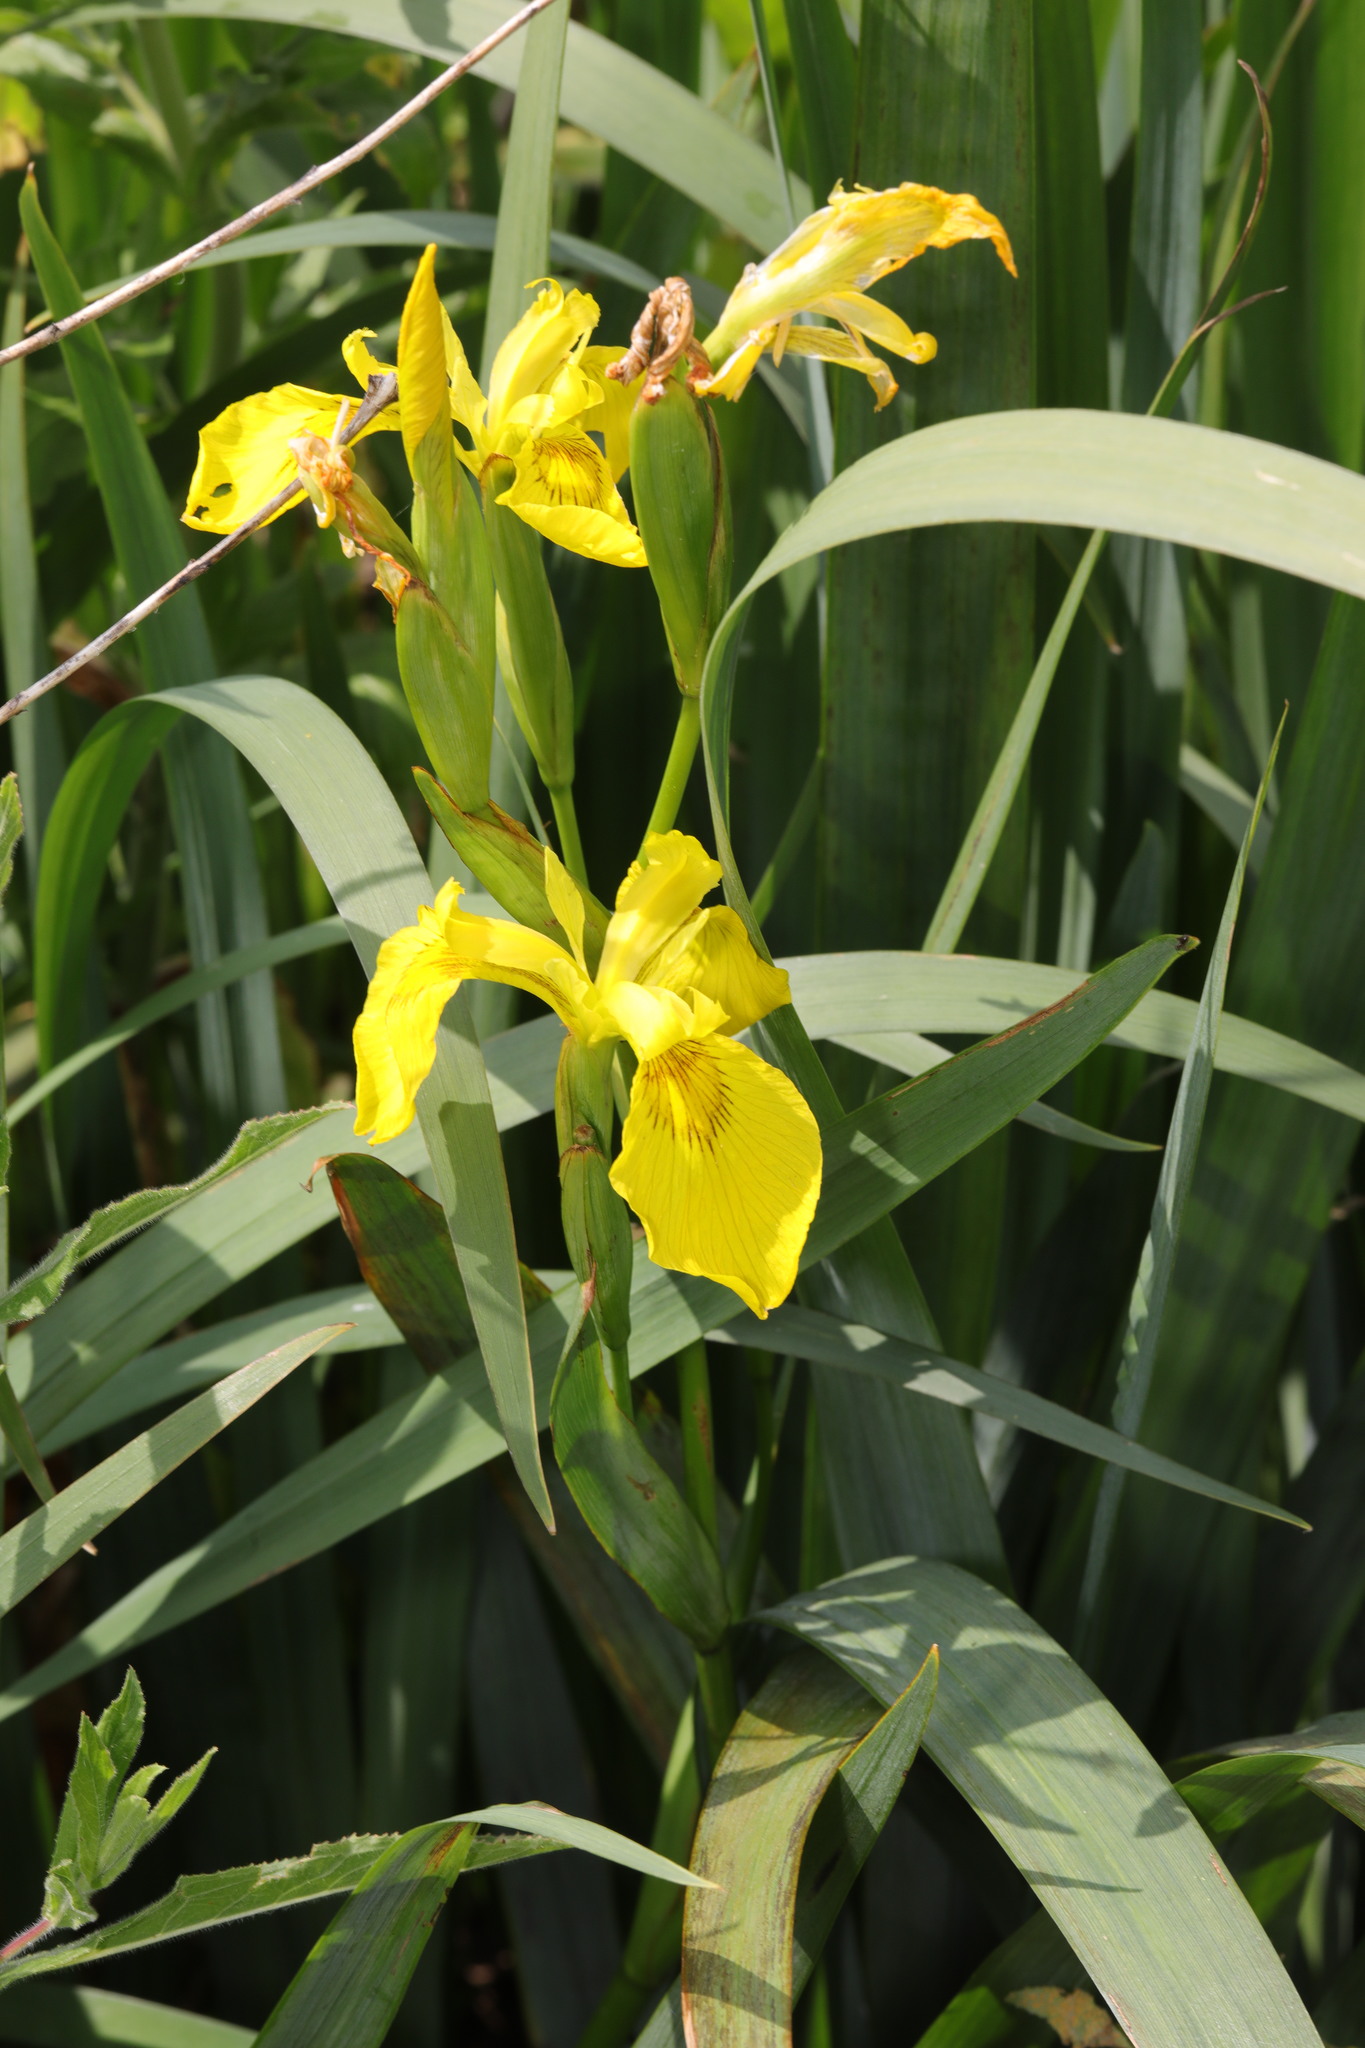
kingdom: Plantae
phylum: Tracheophyta
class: Liliopsida
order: Asparagales
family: Iridaceae
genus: Iris
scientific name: Iris pseudacorus
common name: Yellow flag
